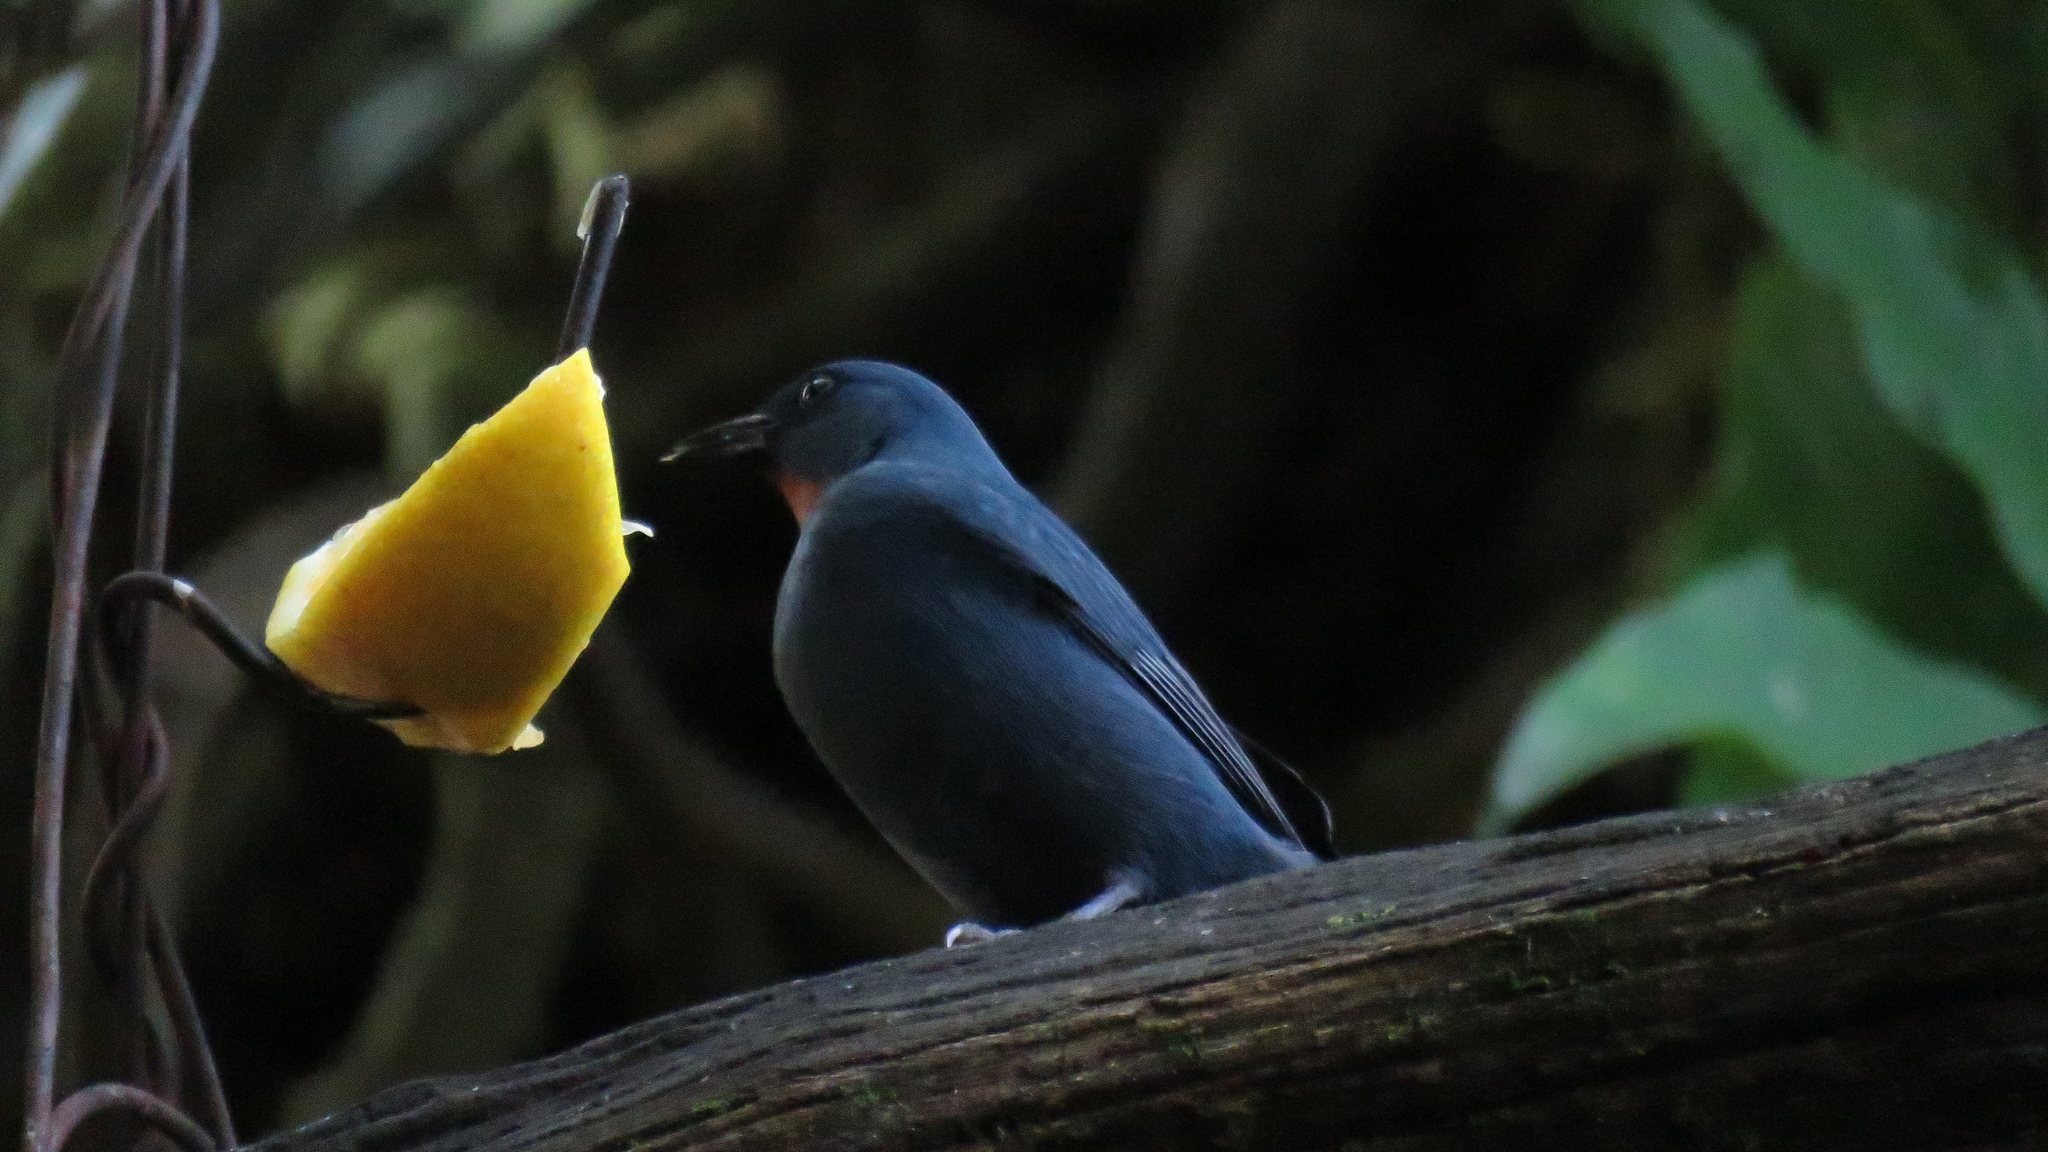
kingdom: Animalia
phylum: Chordata
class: Aves
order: Passeriformes
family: Thraupidae
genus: Euneornis
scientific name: Euneornis campestris
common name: Orangequit
